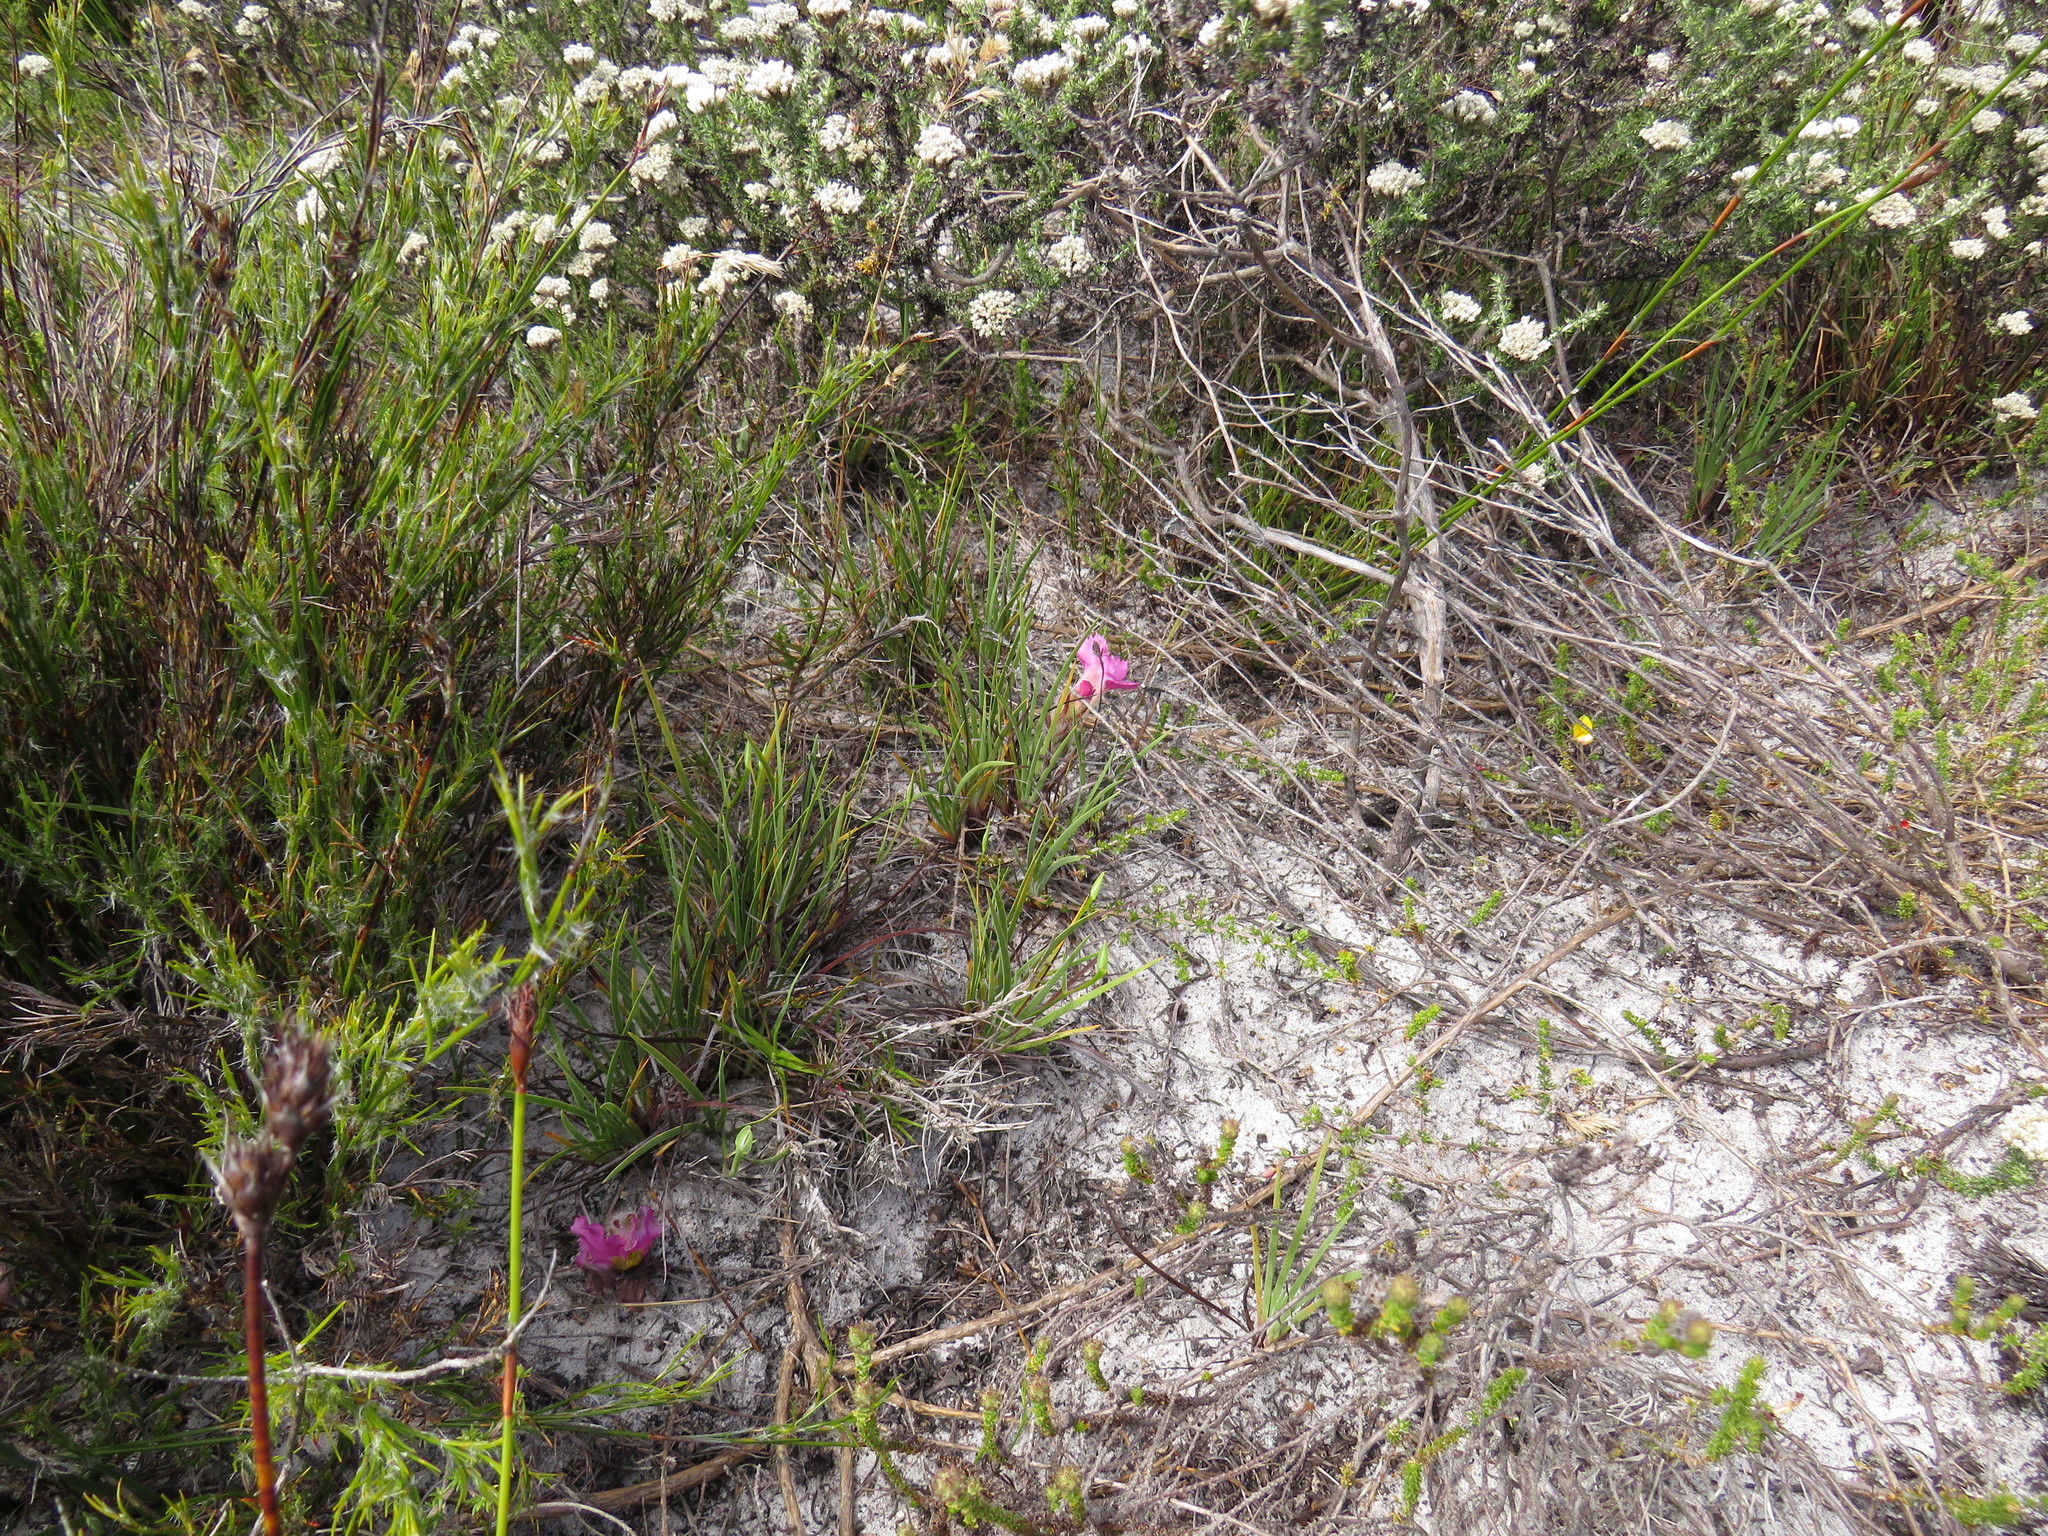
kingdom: Plantae
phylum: Tracheophyta
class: Magnoliopsida
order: Lamiales
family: Orobanchaceae
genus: Harveya
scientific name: Harveya purpurea
